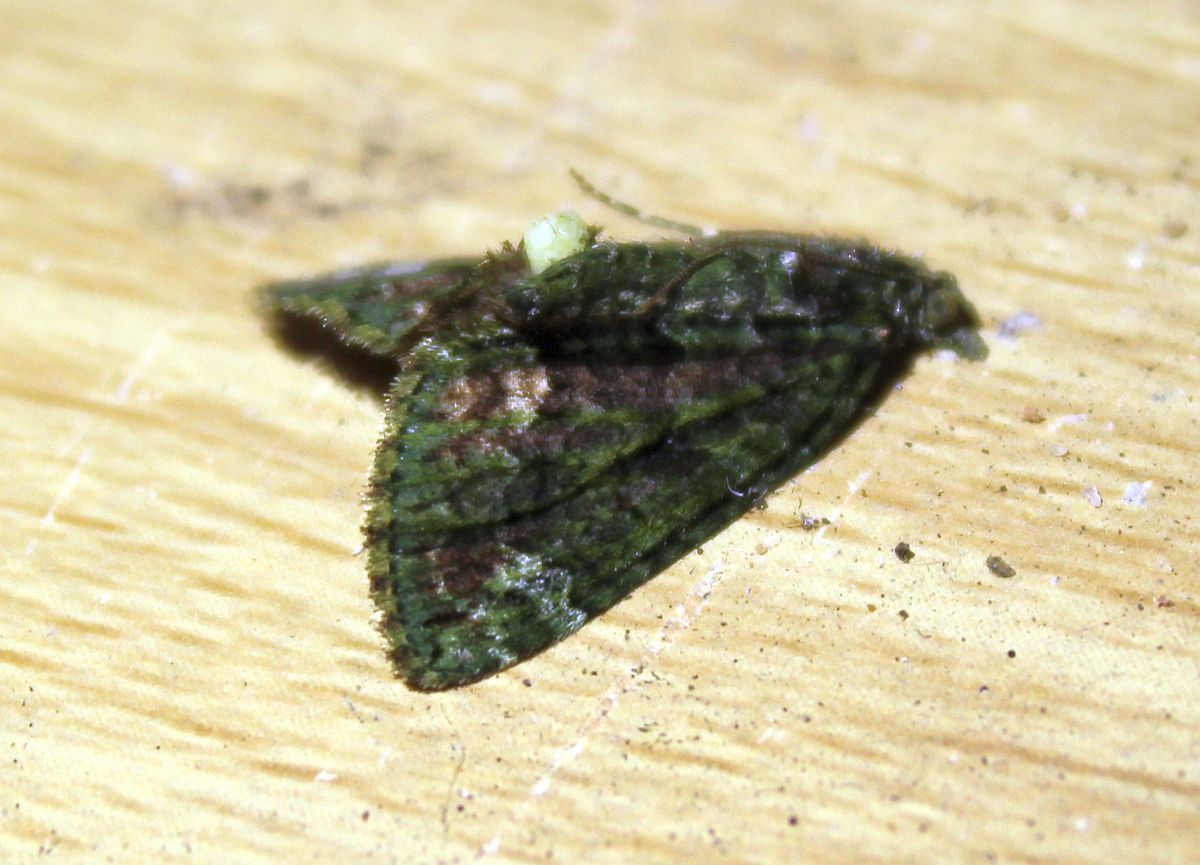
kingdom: Animalia
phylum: Arthropoda
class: Insecta
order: Lepidoptera
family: Geometridae
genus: Chloroclysta
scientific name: Chloroclysta siterata
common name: Red-green carpet
